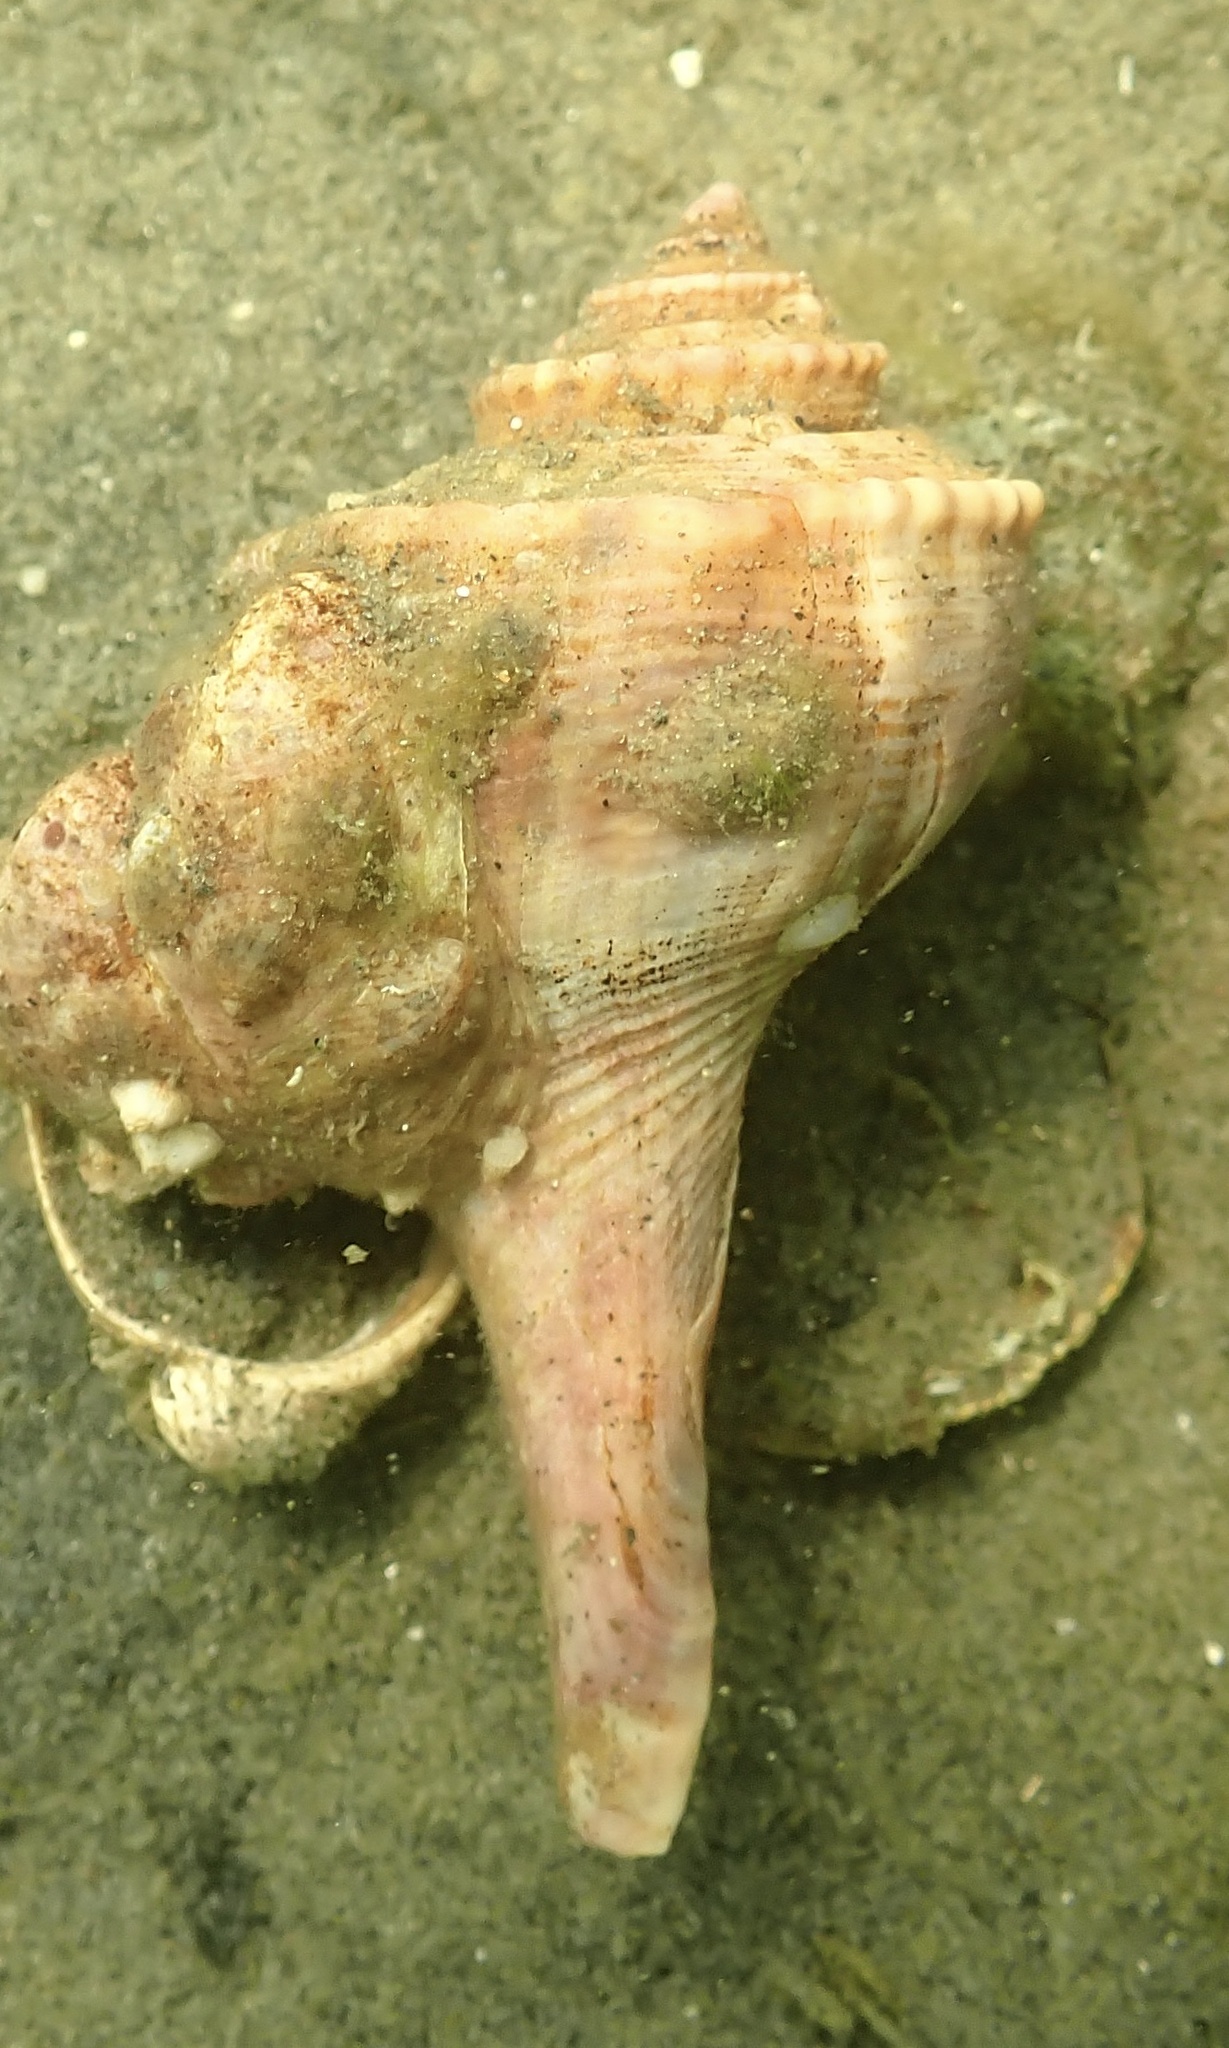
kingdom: Animalia
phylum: Mollusca
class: Gastropoda
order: Neogastropoda
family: Busyconidae
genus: Busycotypus
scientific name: Busycotypus canaliculatus
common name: Channeled whelk
